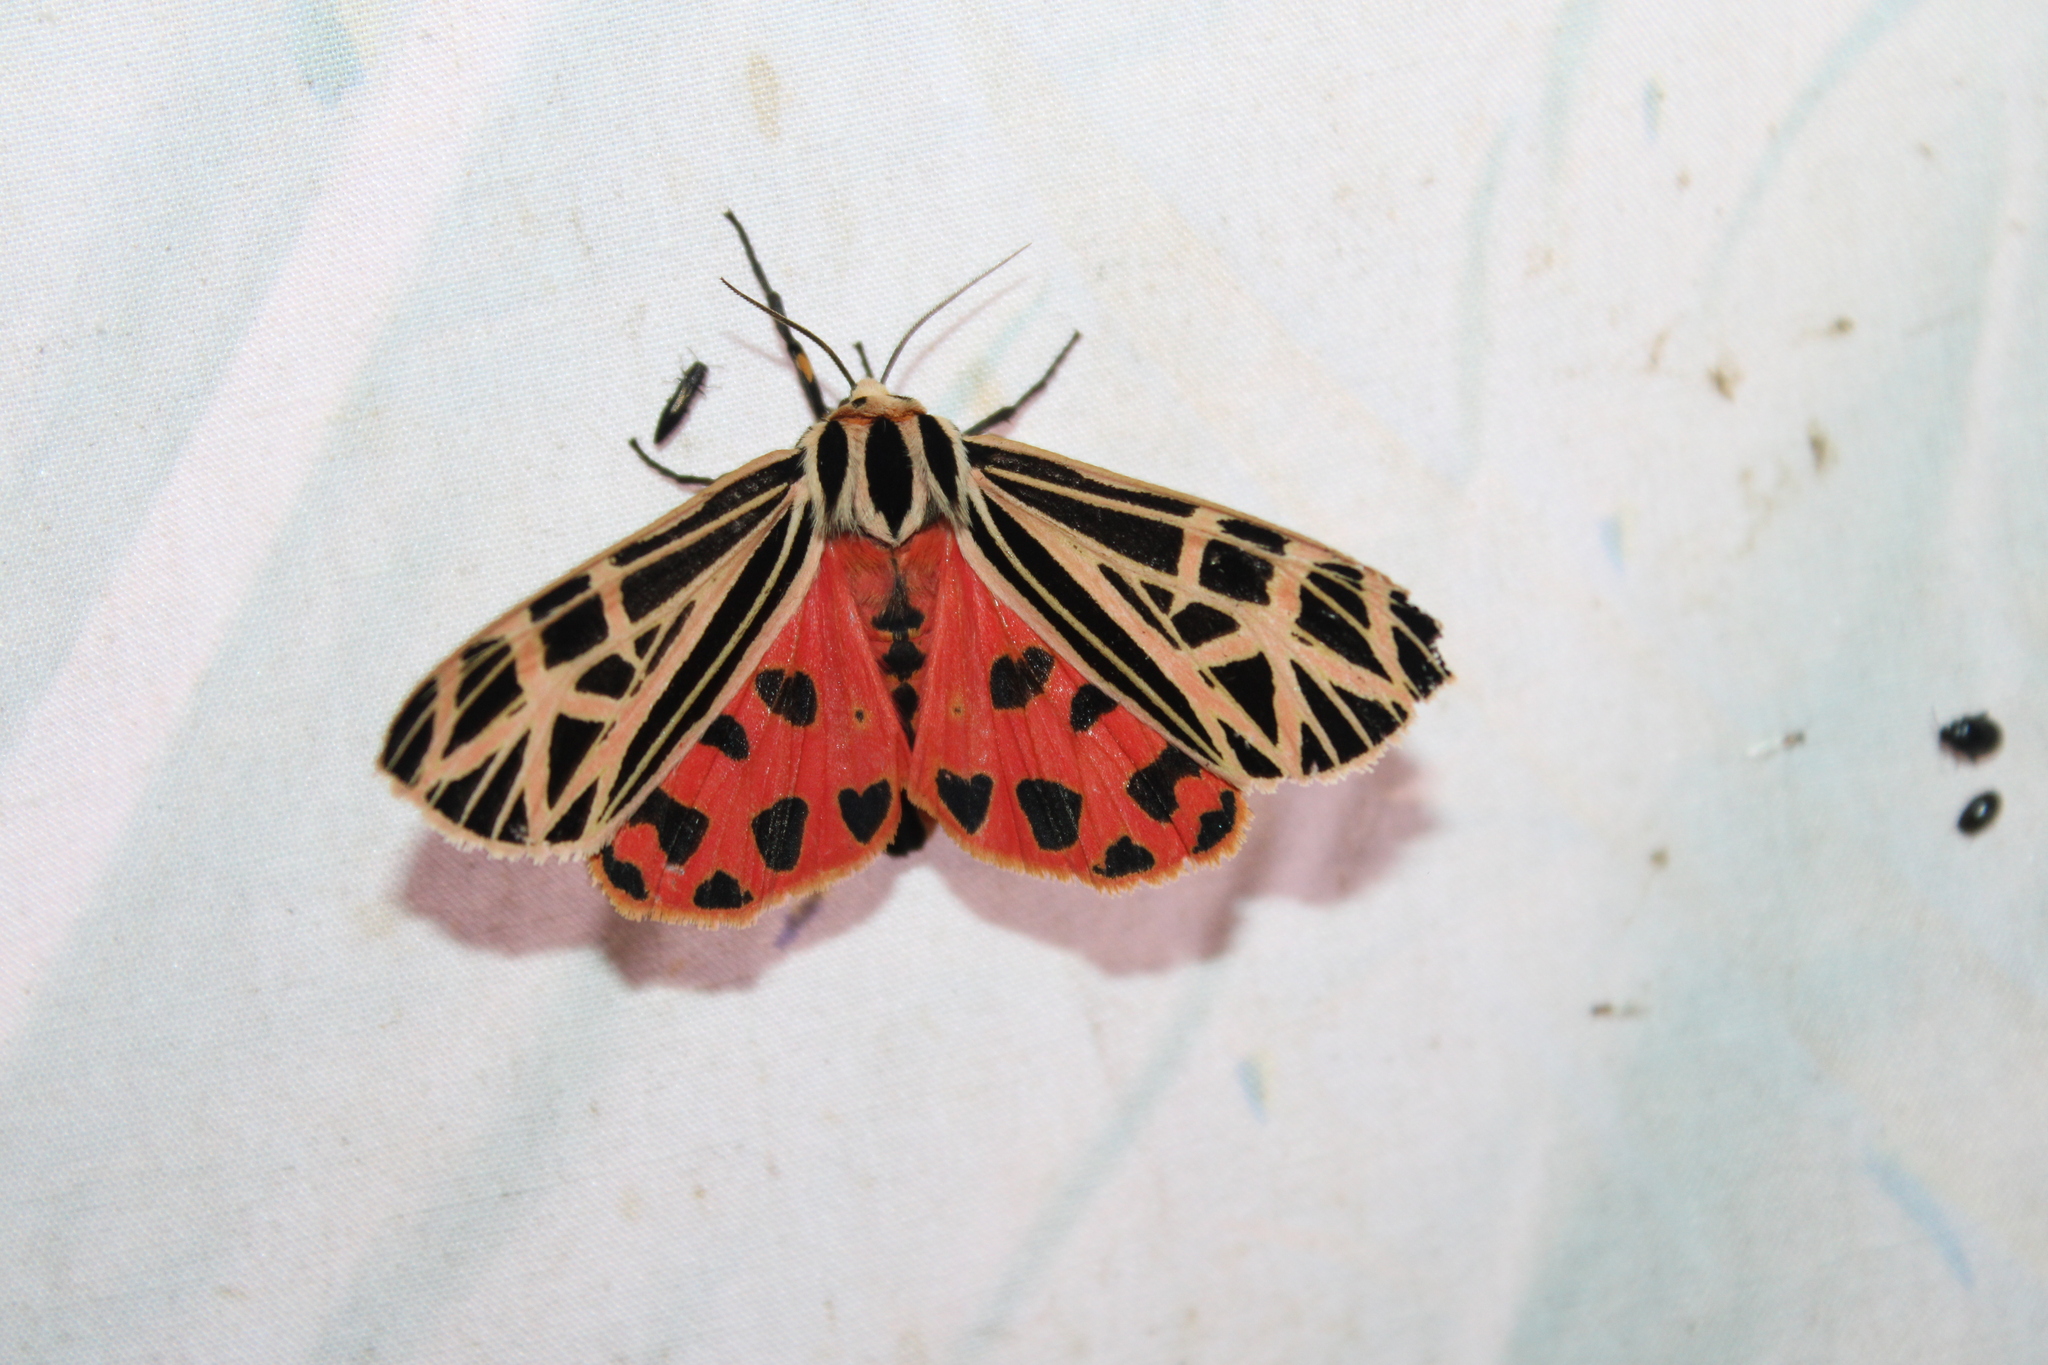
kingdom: Animalia
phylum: Arthropoda
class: Insecta
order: Lepidoptera
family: Erebidae
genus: Grammia
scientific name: Grammia virgo
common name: Virgin tiger moth
